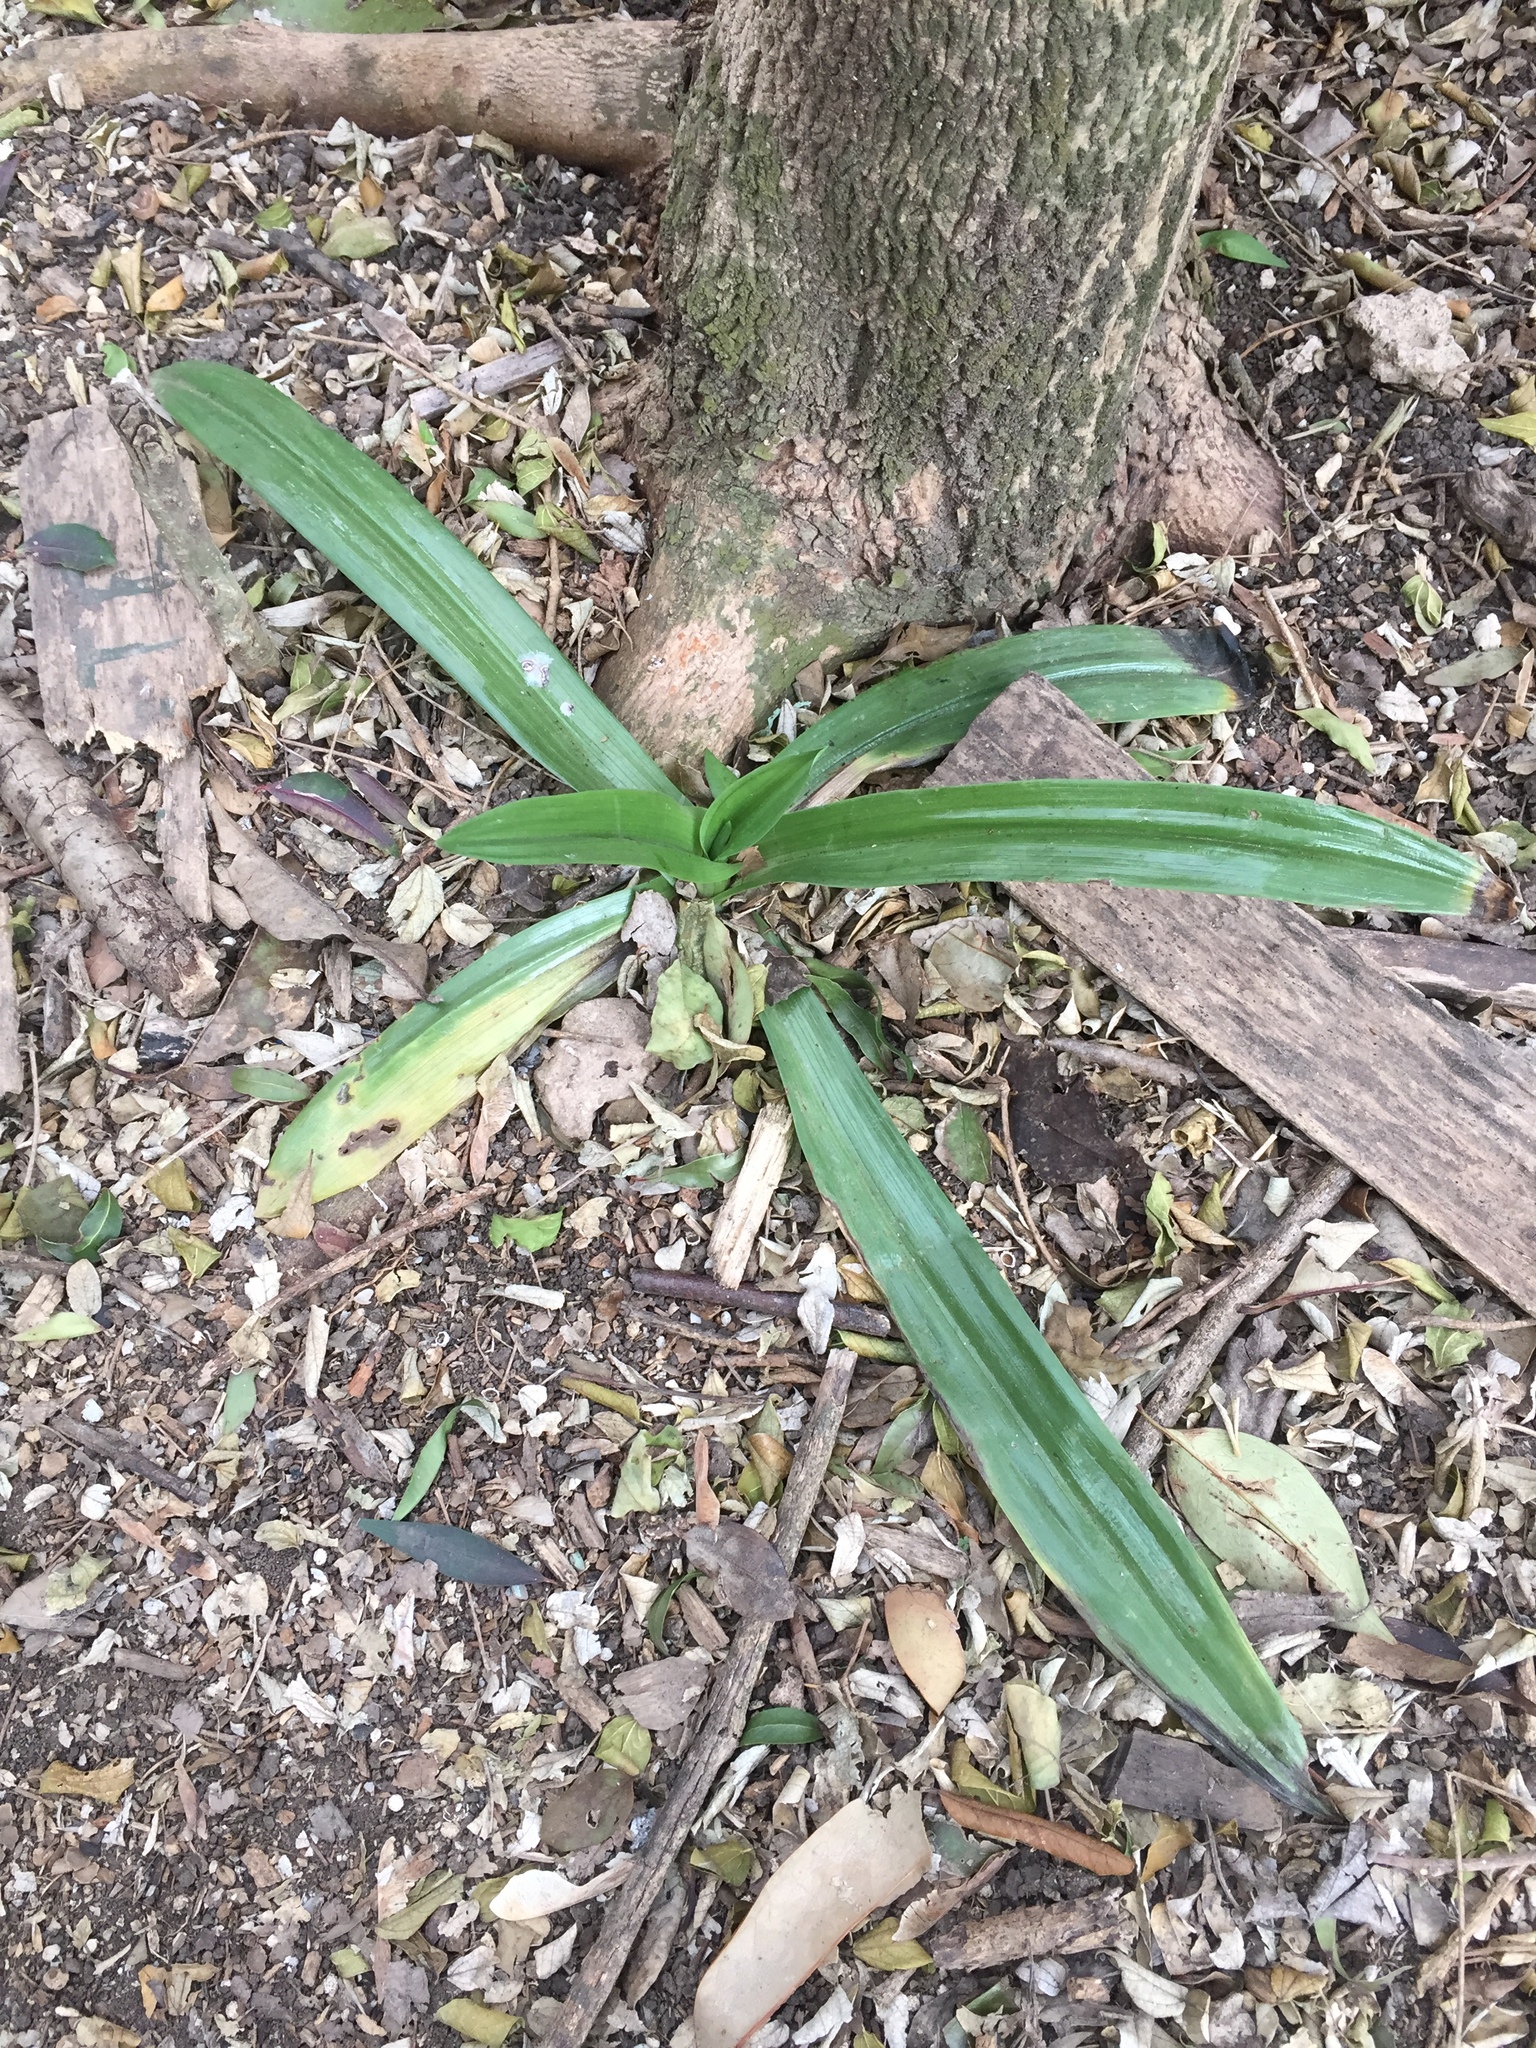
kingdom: Plantae
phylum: Tracheophyta
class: Liliopsida
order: Asparagales
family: Orchidaceae
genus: Chloraea
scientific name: Chloraea membranacea
